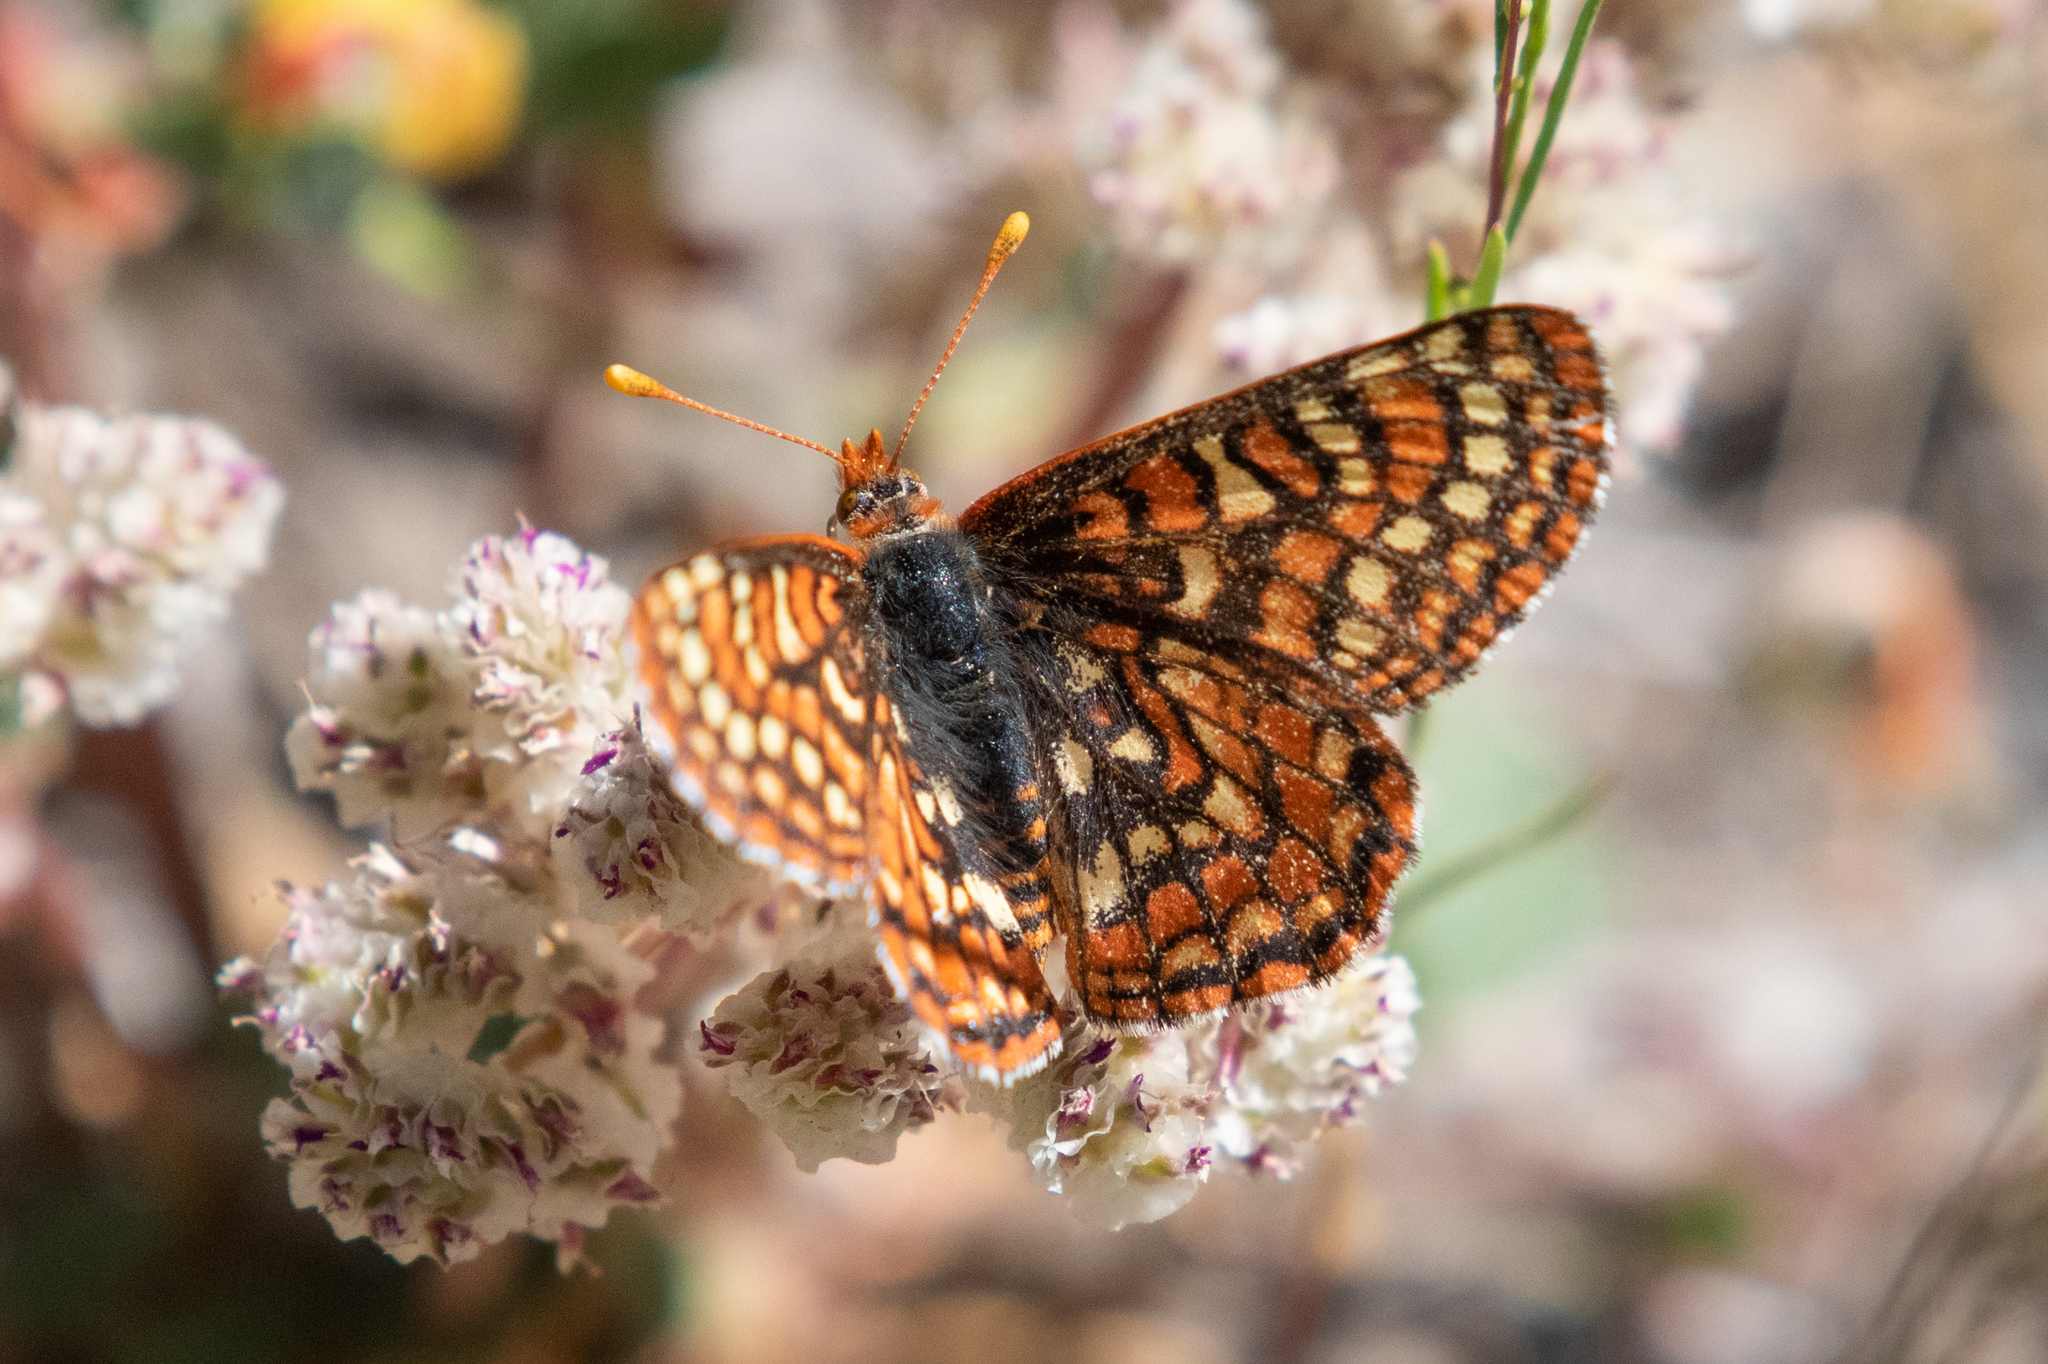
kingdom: Animalia
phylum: Arthropoda
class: Insecta
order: Lepidoptera
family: Nymphalidae
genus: Occidryas
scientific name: Occidryas editha
